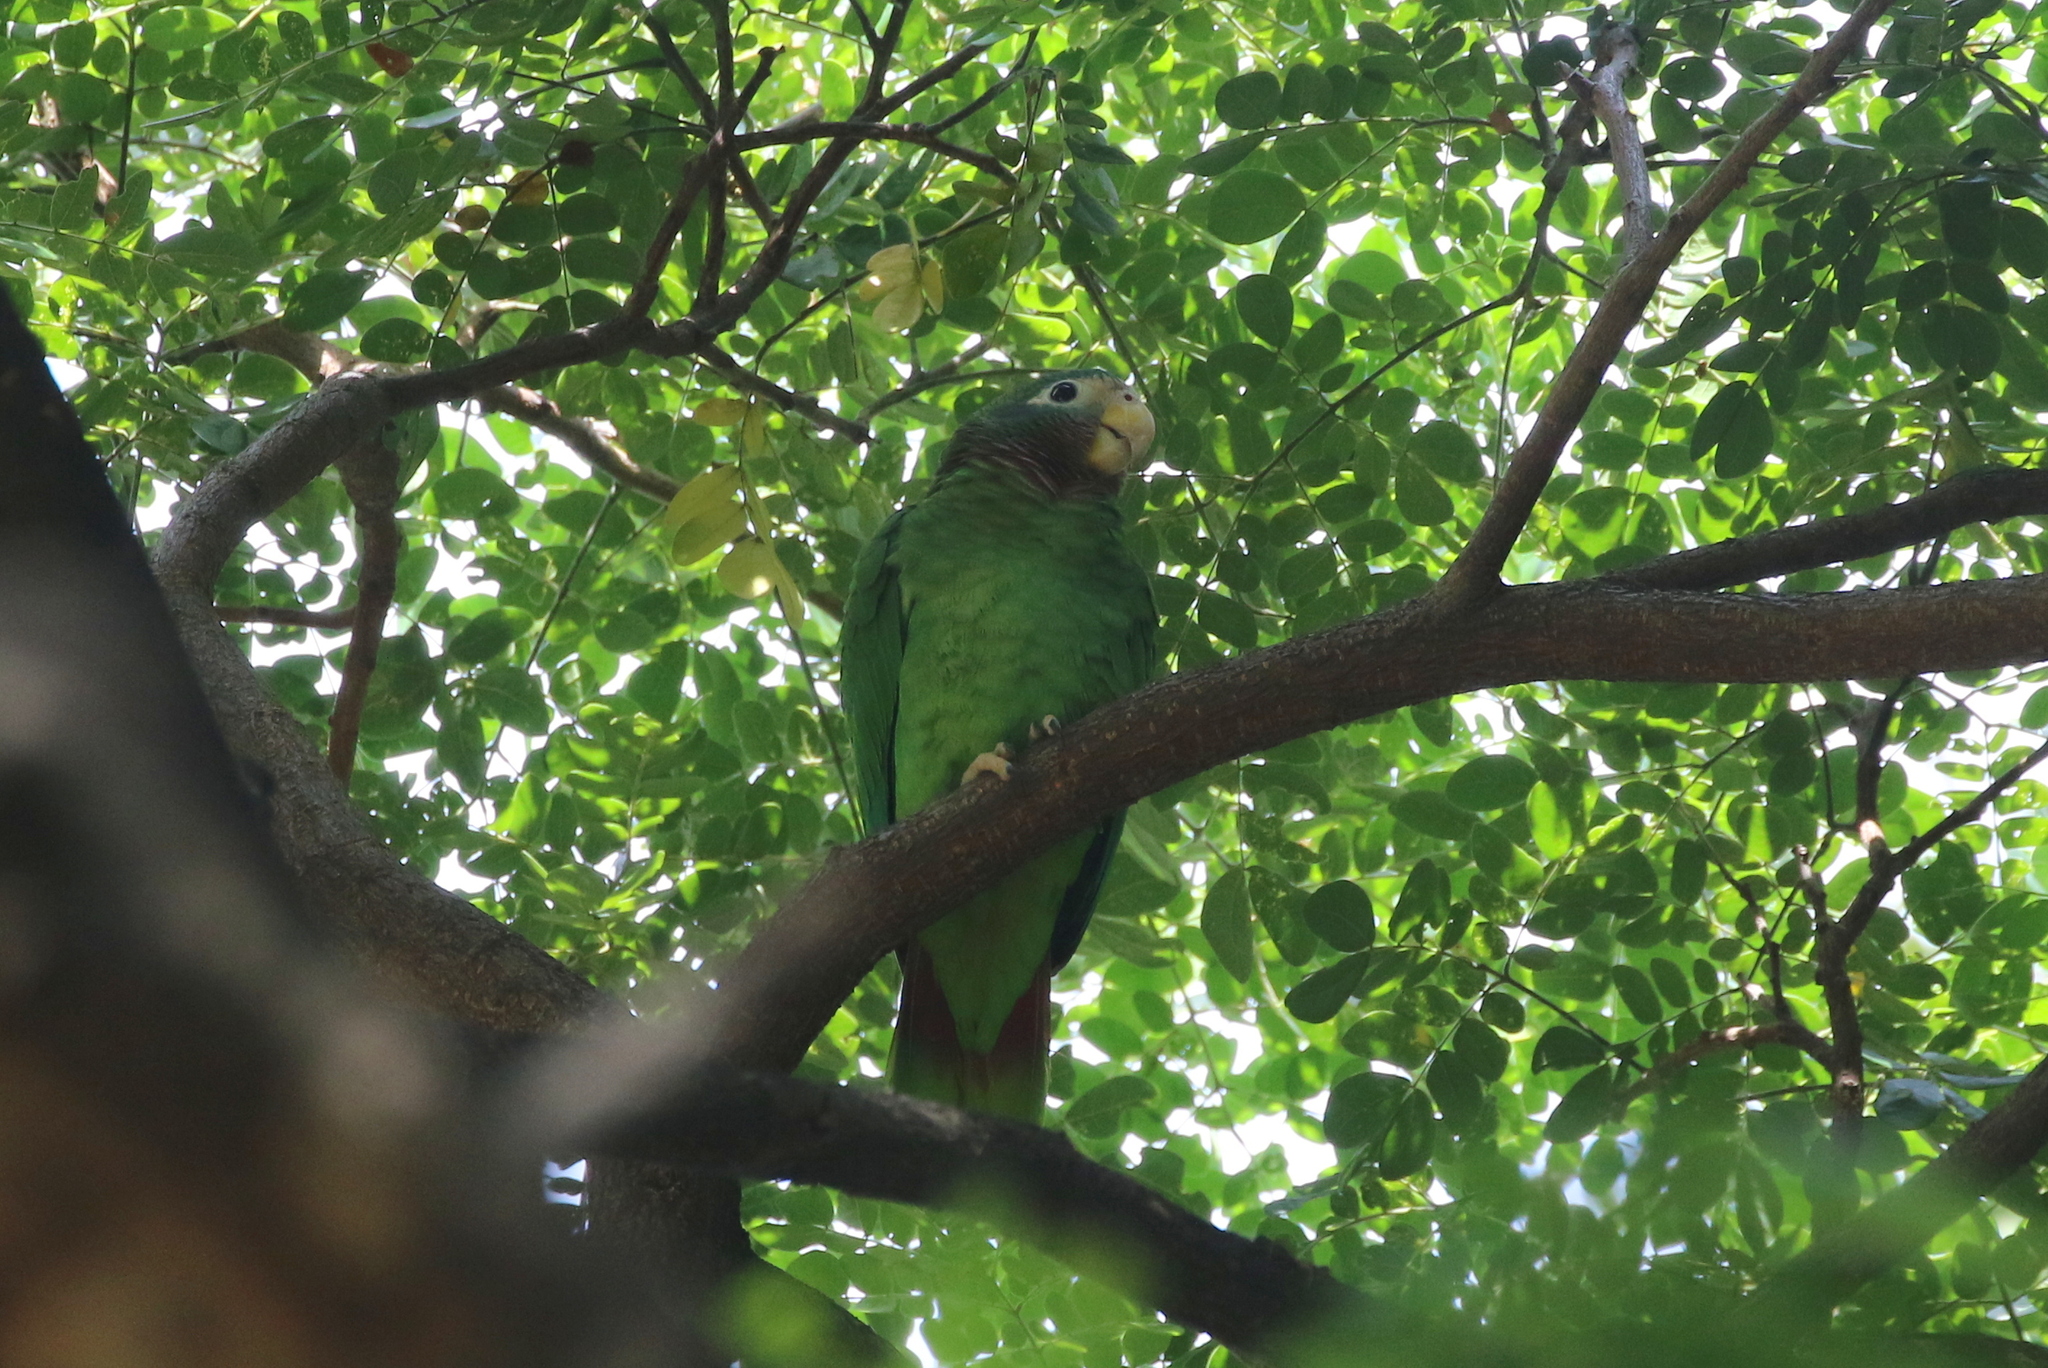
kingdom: Animalia
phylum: Chordata
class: Aves
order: Psittaciformes
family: Psittacidae
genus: Amazona
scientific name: Amazona collaria
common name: Yellow-billed amazon
